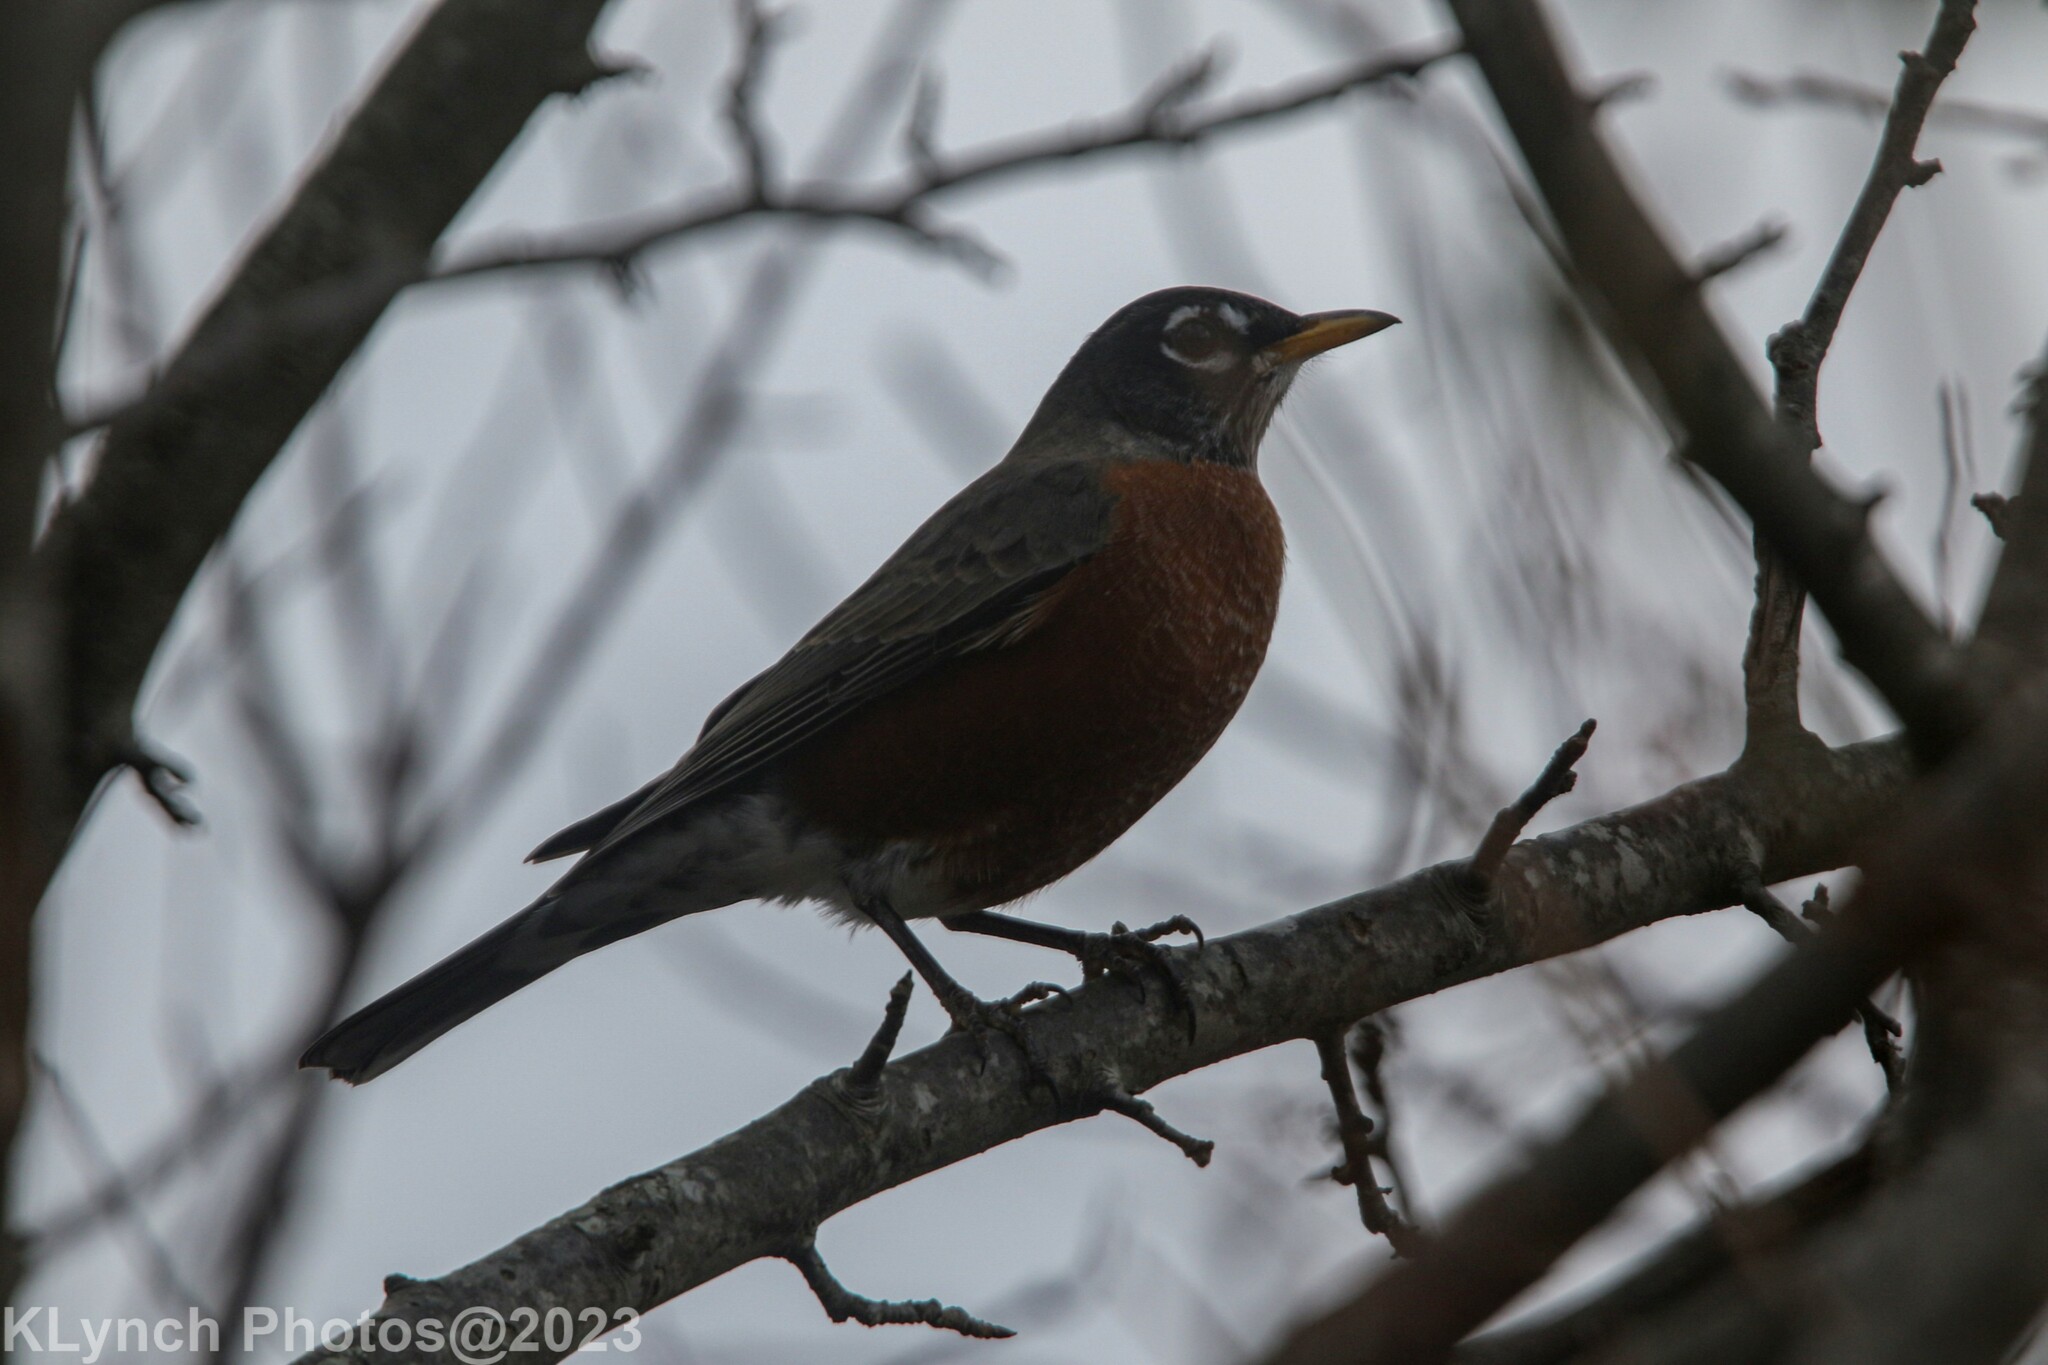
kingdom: Animalia
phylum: Chordata
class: Aves
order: Passeriformes
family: Turdidae
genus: Turdus
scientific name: Turdus migratorius
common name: American robin
